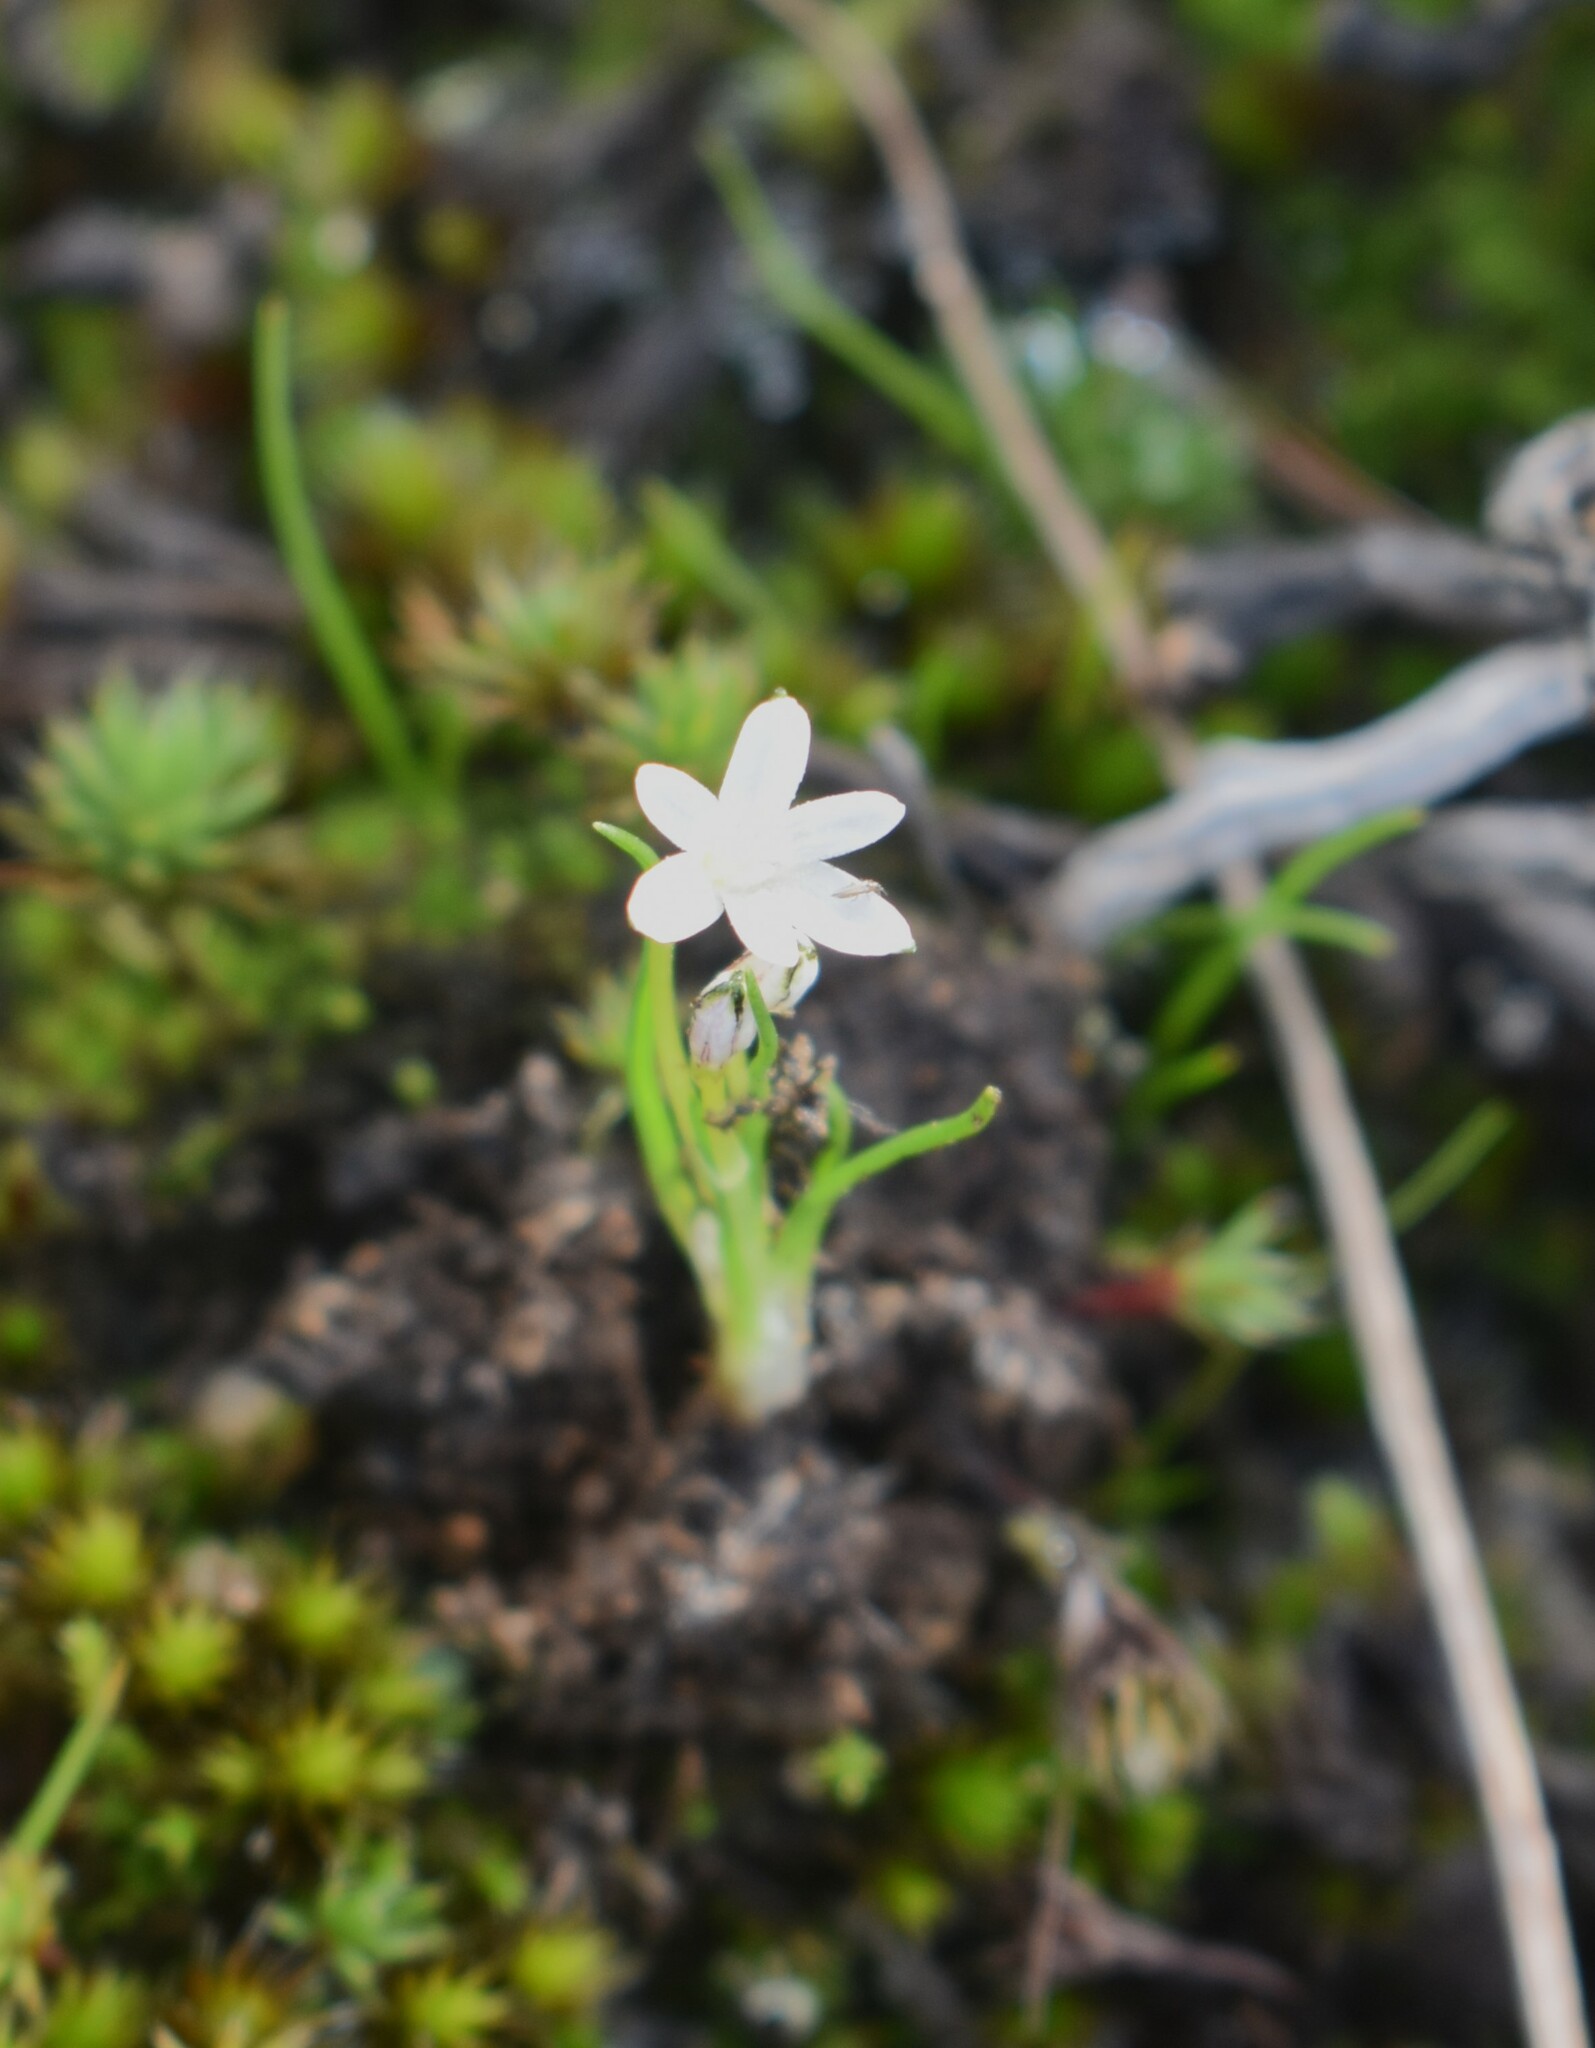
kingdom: Plantae
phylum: Tracheophyta
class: Liliopsida
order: Asparagales
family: Hypoxidaceae
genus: Pauridia
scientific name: Pauridia minuta
